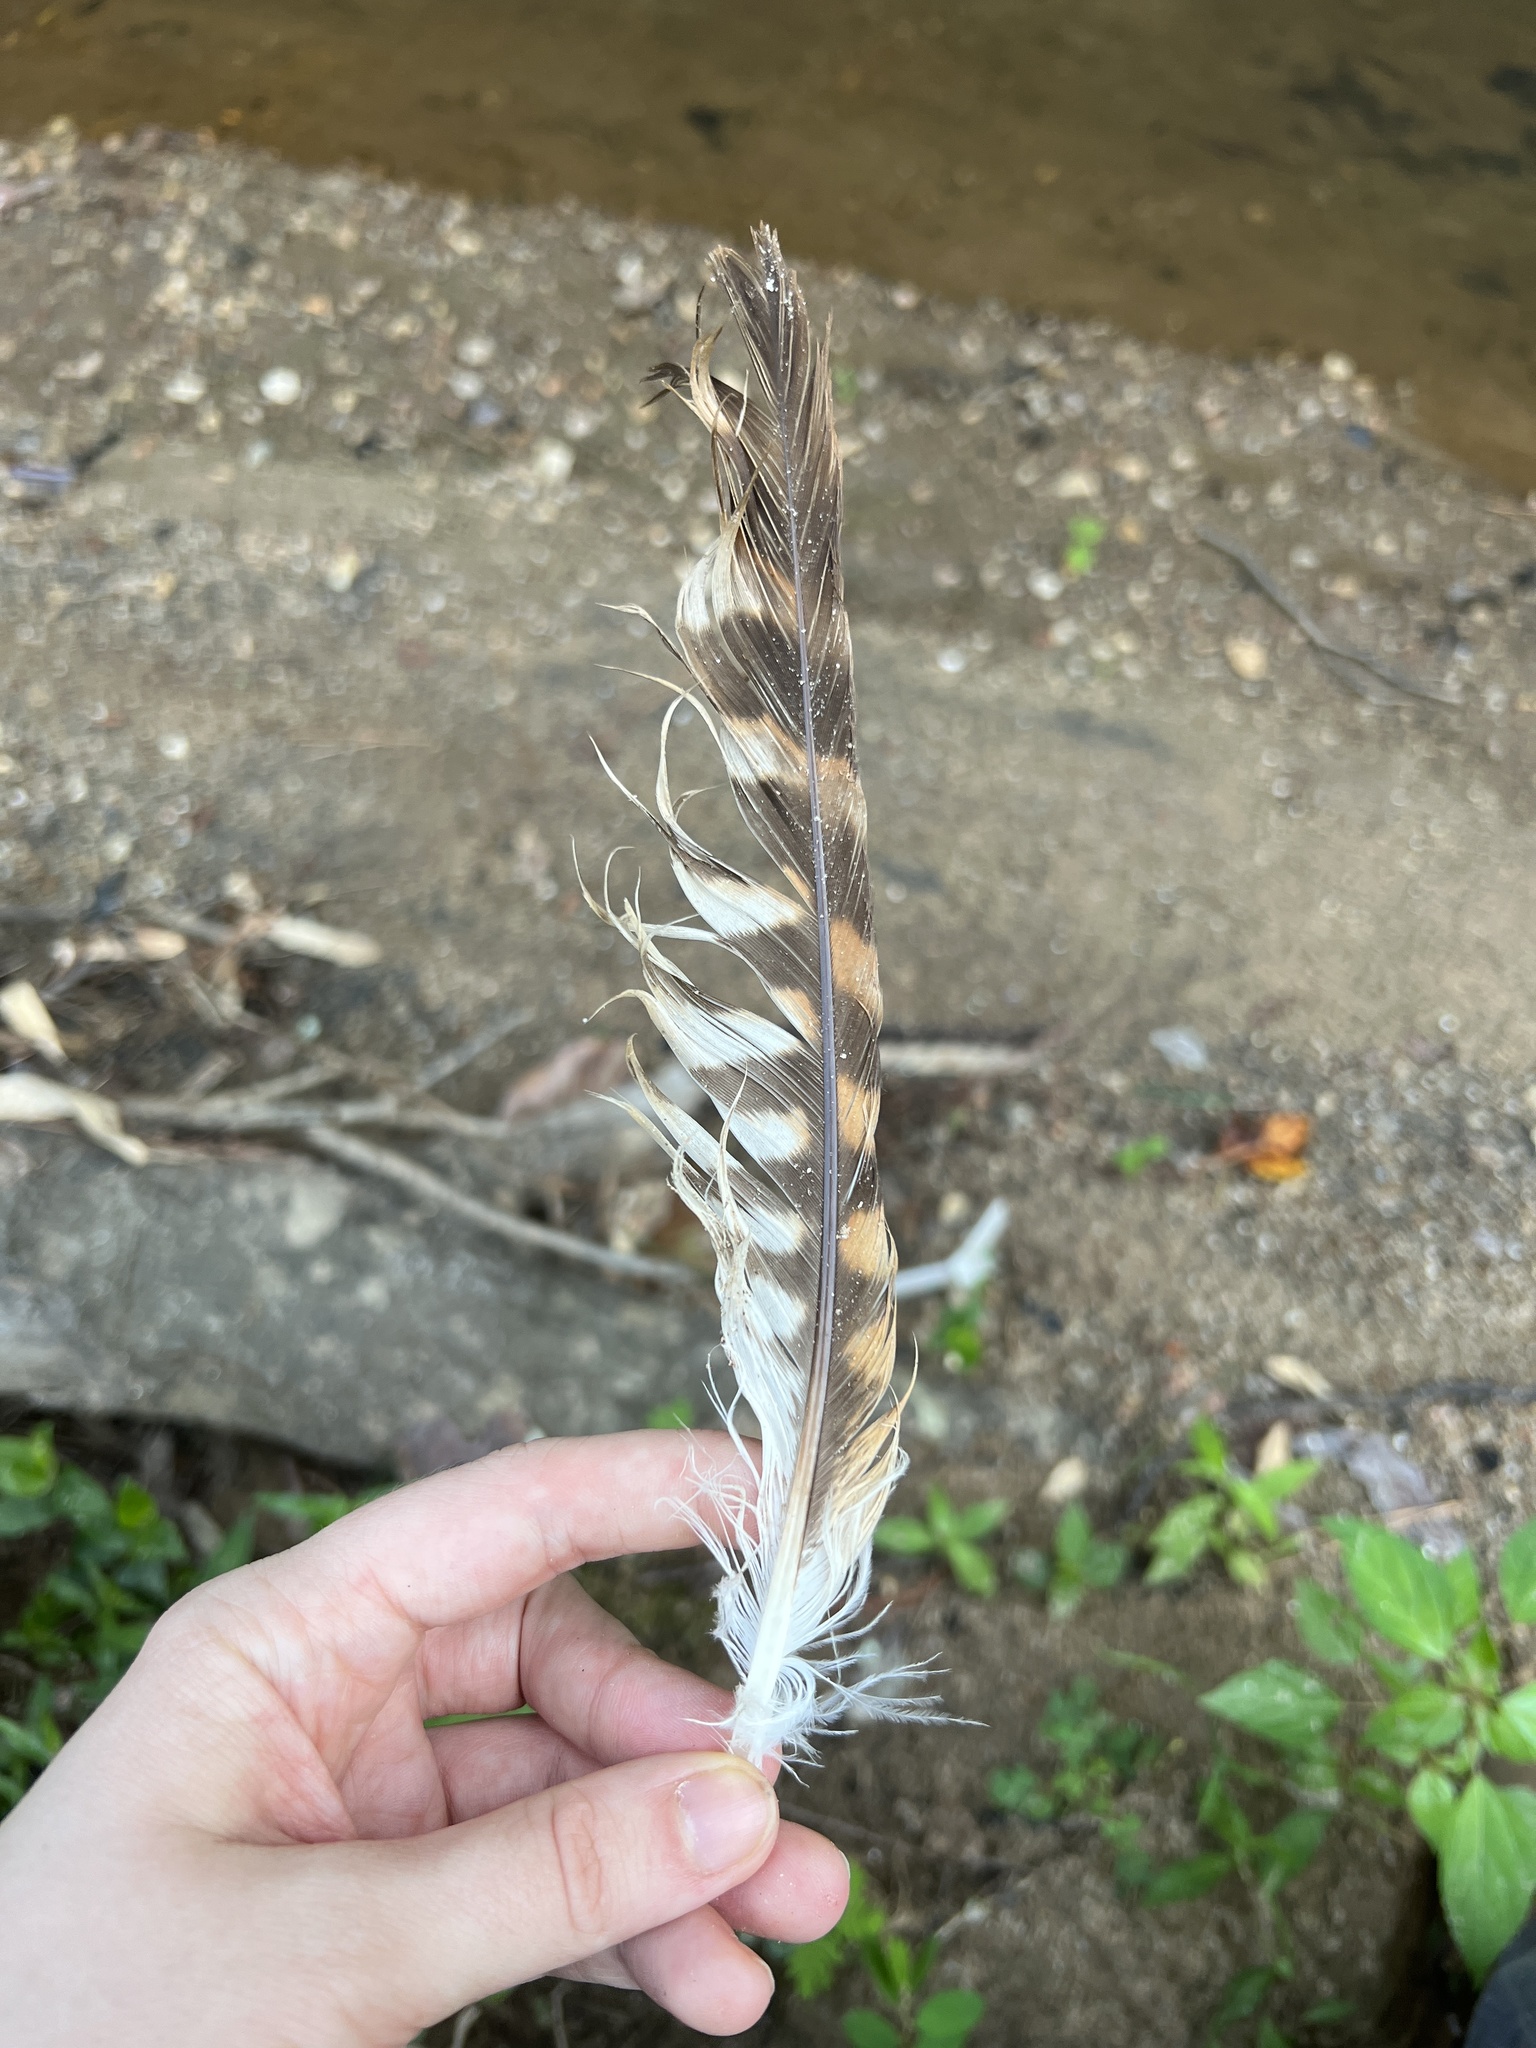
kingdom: Animalia
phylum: Chordata
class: Aves
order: Accipitriformes
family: Accipitridae
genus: Buteo
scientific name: Buteo lineatus
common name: Red-shouldered hawk
